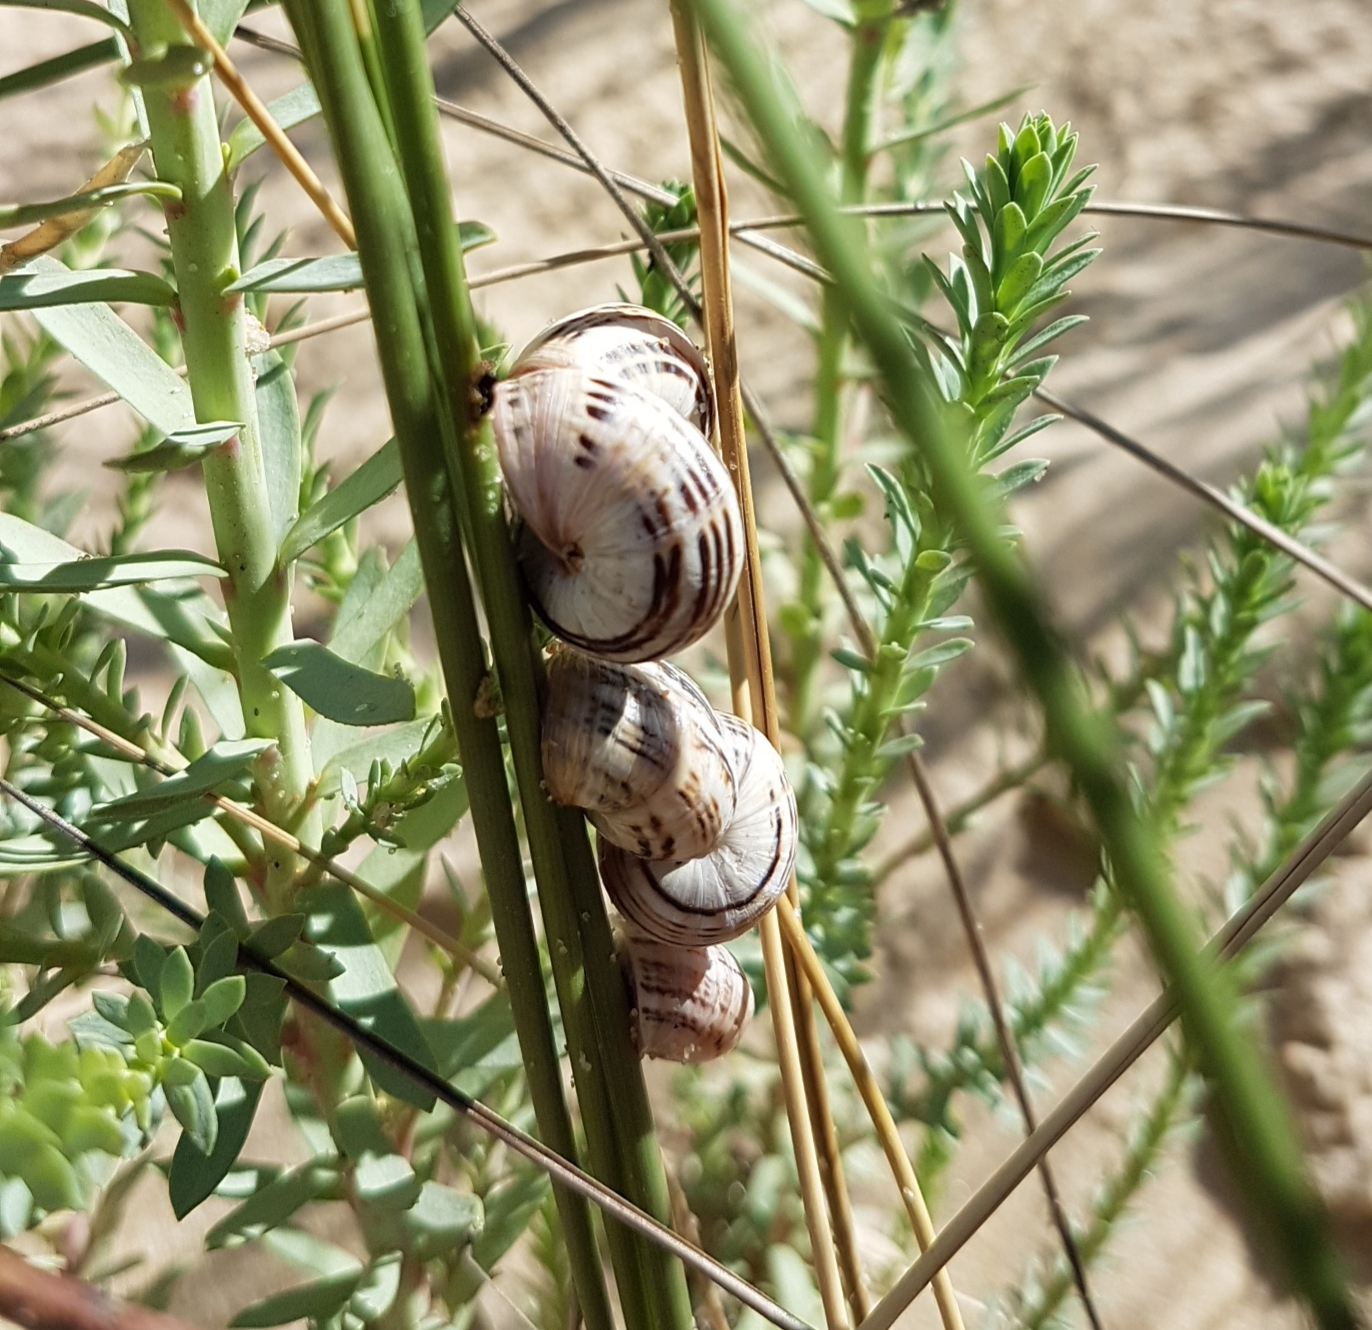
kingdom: Animalia
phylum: Mollusca
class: Gastropoda
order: Stylommatophora
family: Helicidae
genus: Theba
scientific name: Theba pisana
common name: White snail
